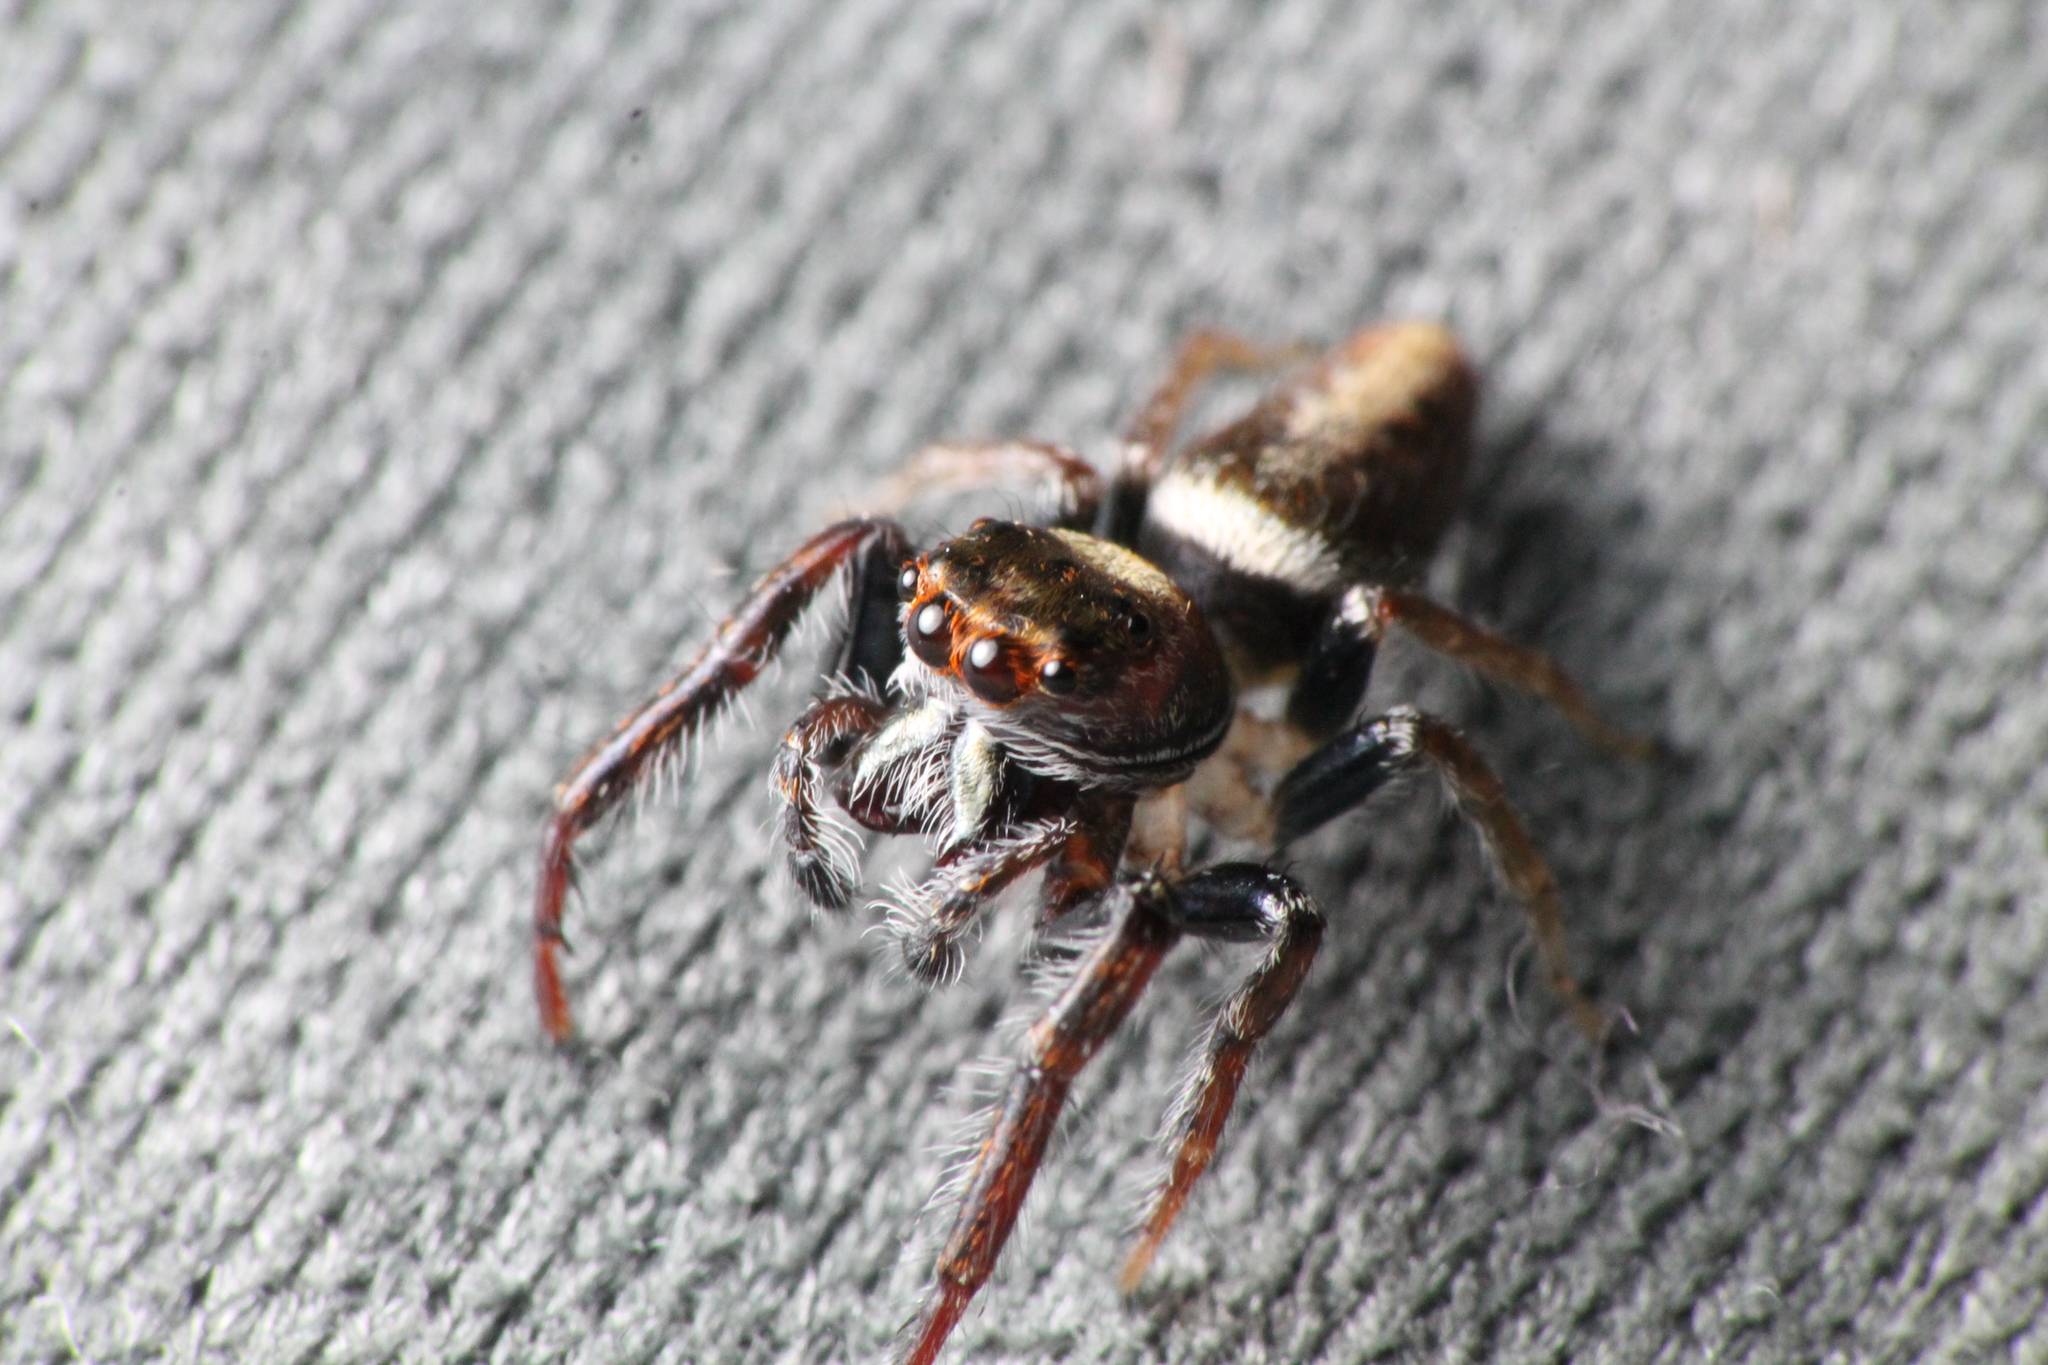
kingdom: Animalia
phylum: Arthropoda
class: Arachnida
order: Araneae
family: Salticidae
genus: Opisthoncus
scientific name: Opisthoncus polyphemus
